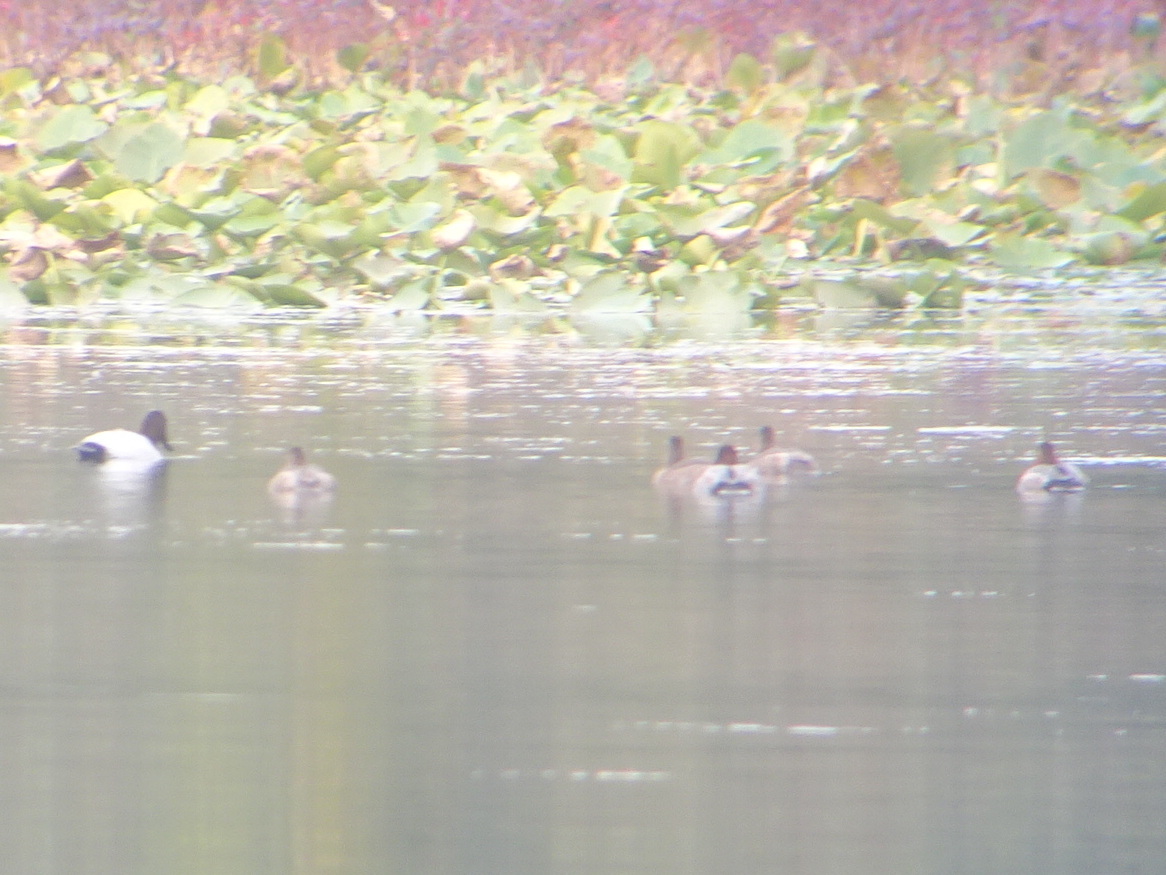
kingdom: Animalia
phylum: Chordata
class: Aves
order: Anseriformes
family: Anatidae
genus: Aythya
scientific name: Aythya valisineria
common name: Canvasback
